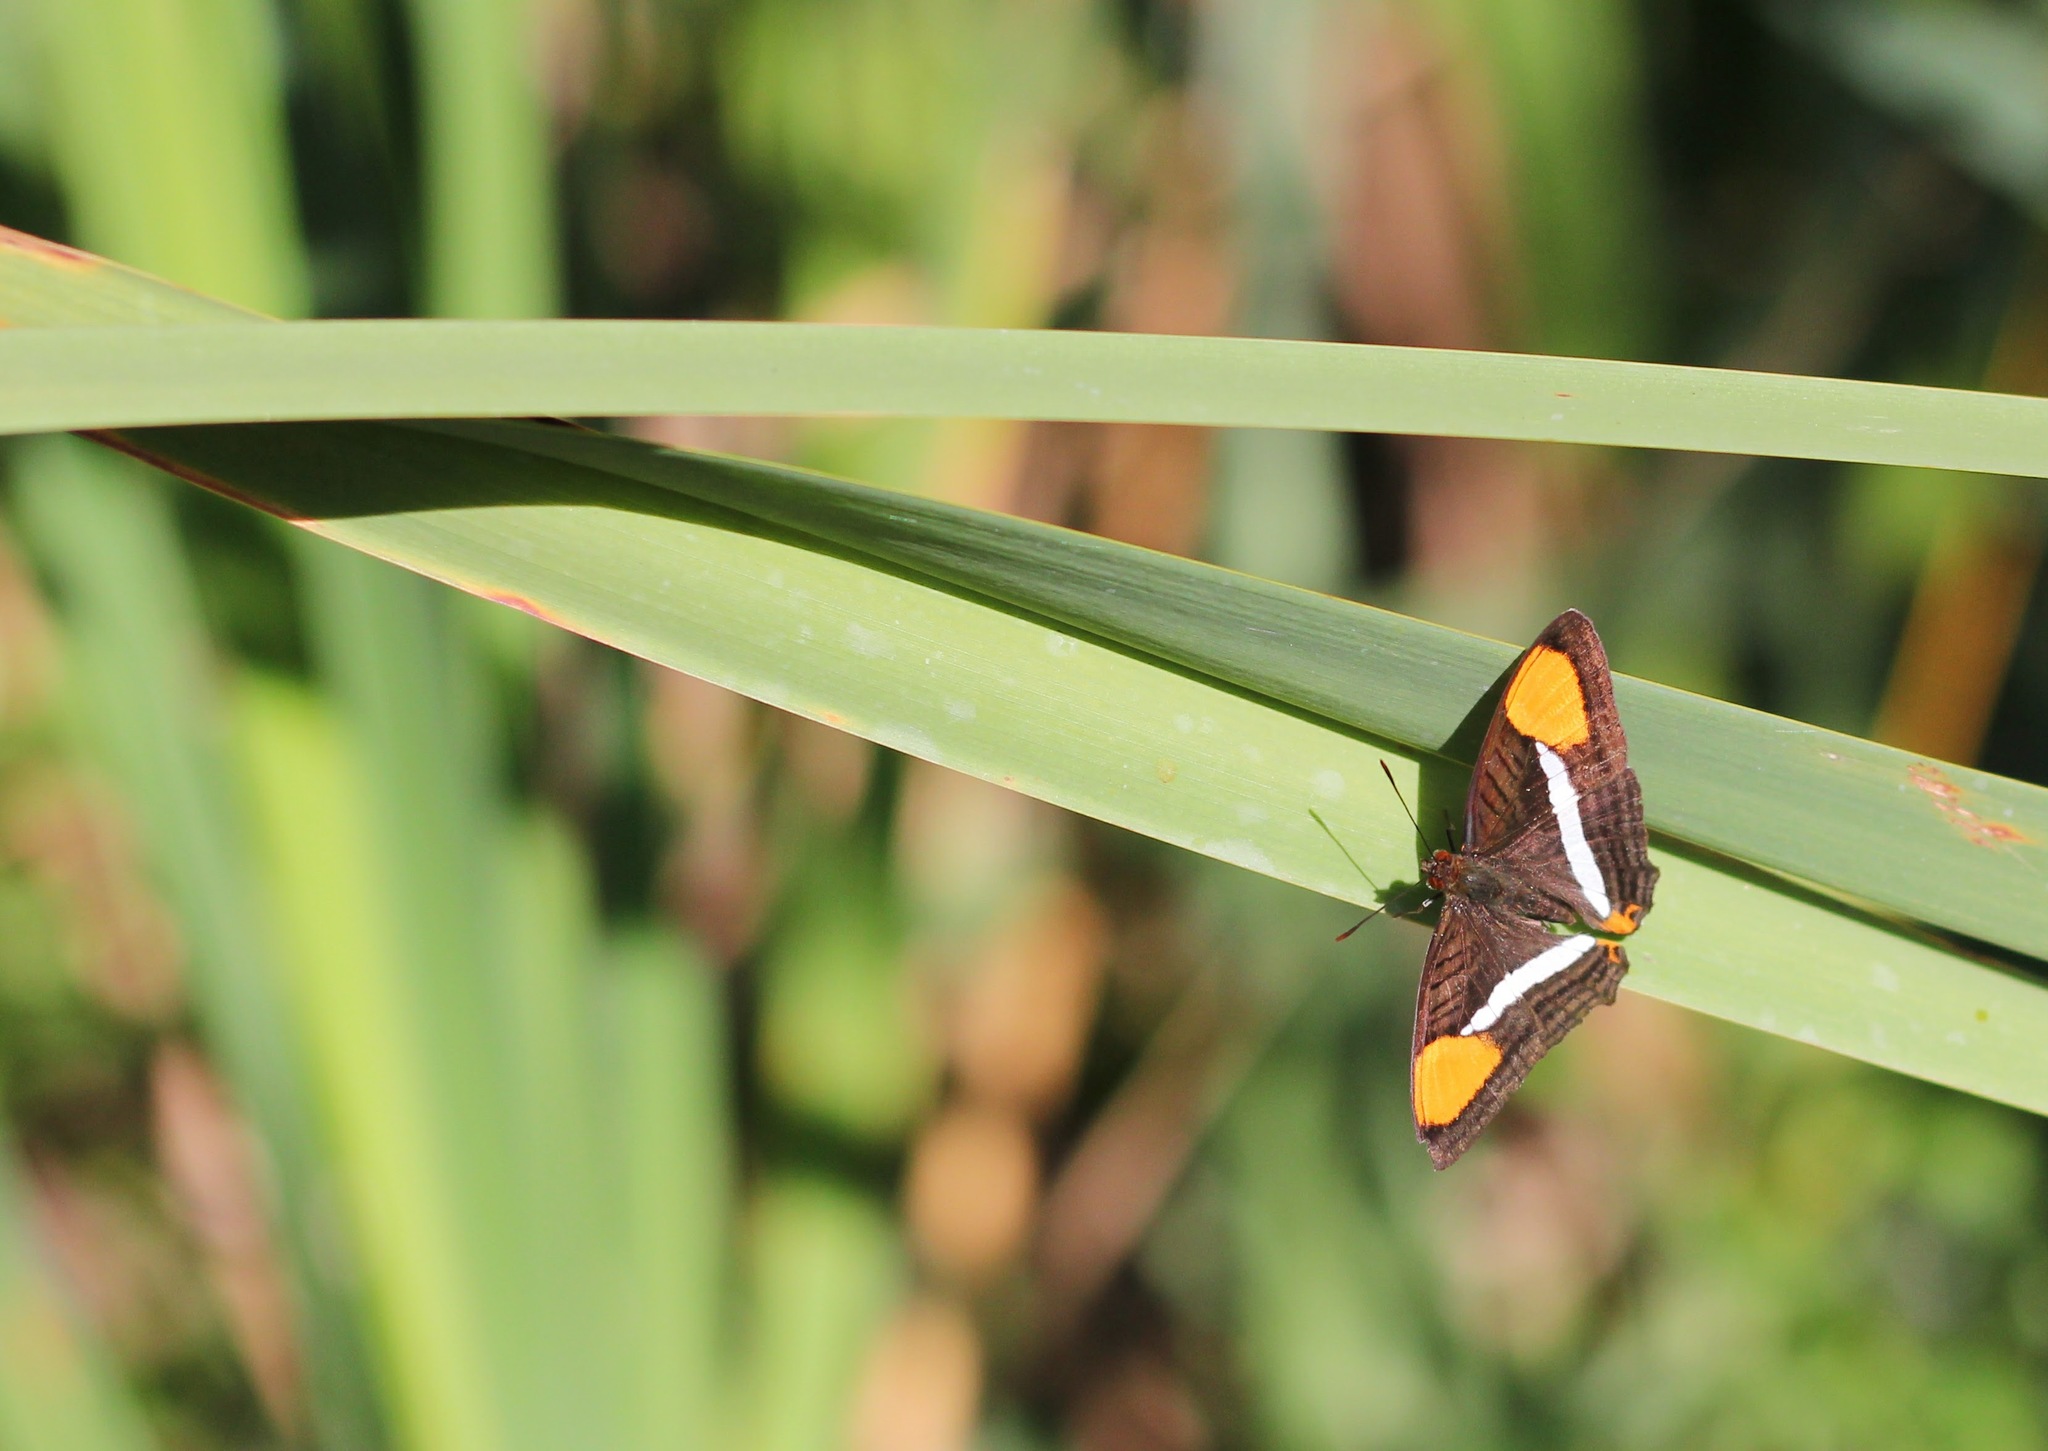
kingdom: Animalia
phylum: Arthropoda
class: Insecta
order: Lepidoptera
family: Nymphalidae
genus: Limenitis
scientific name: Limenitis syma
